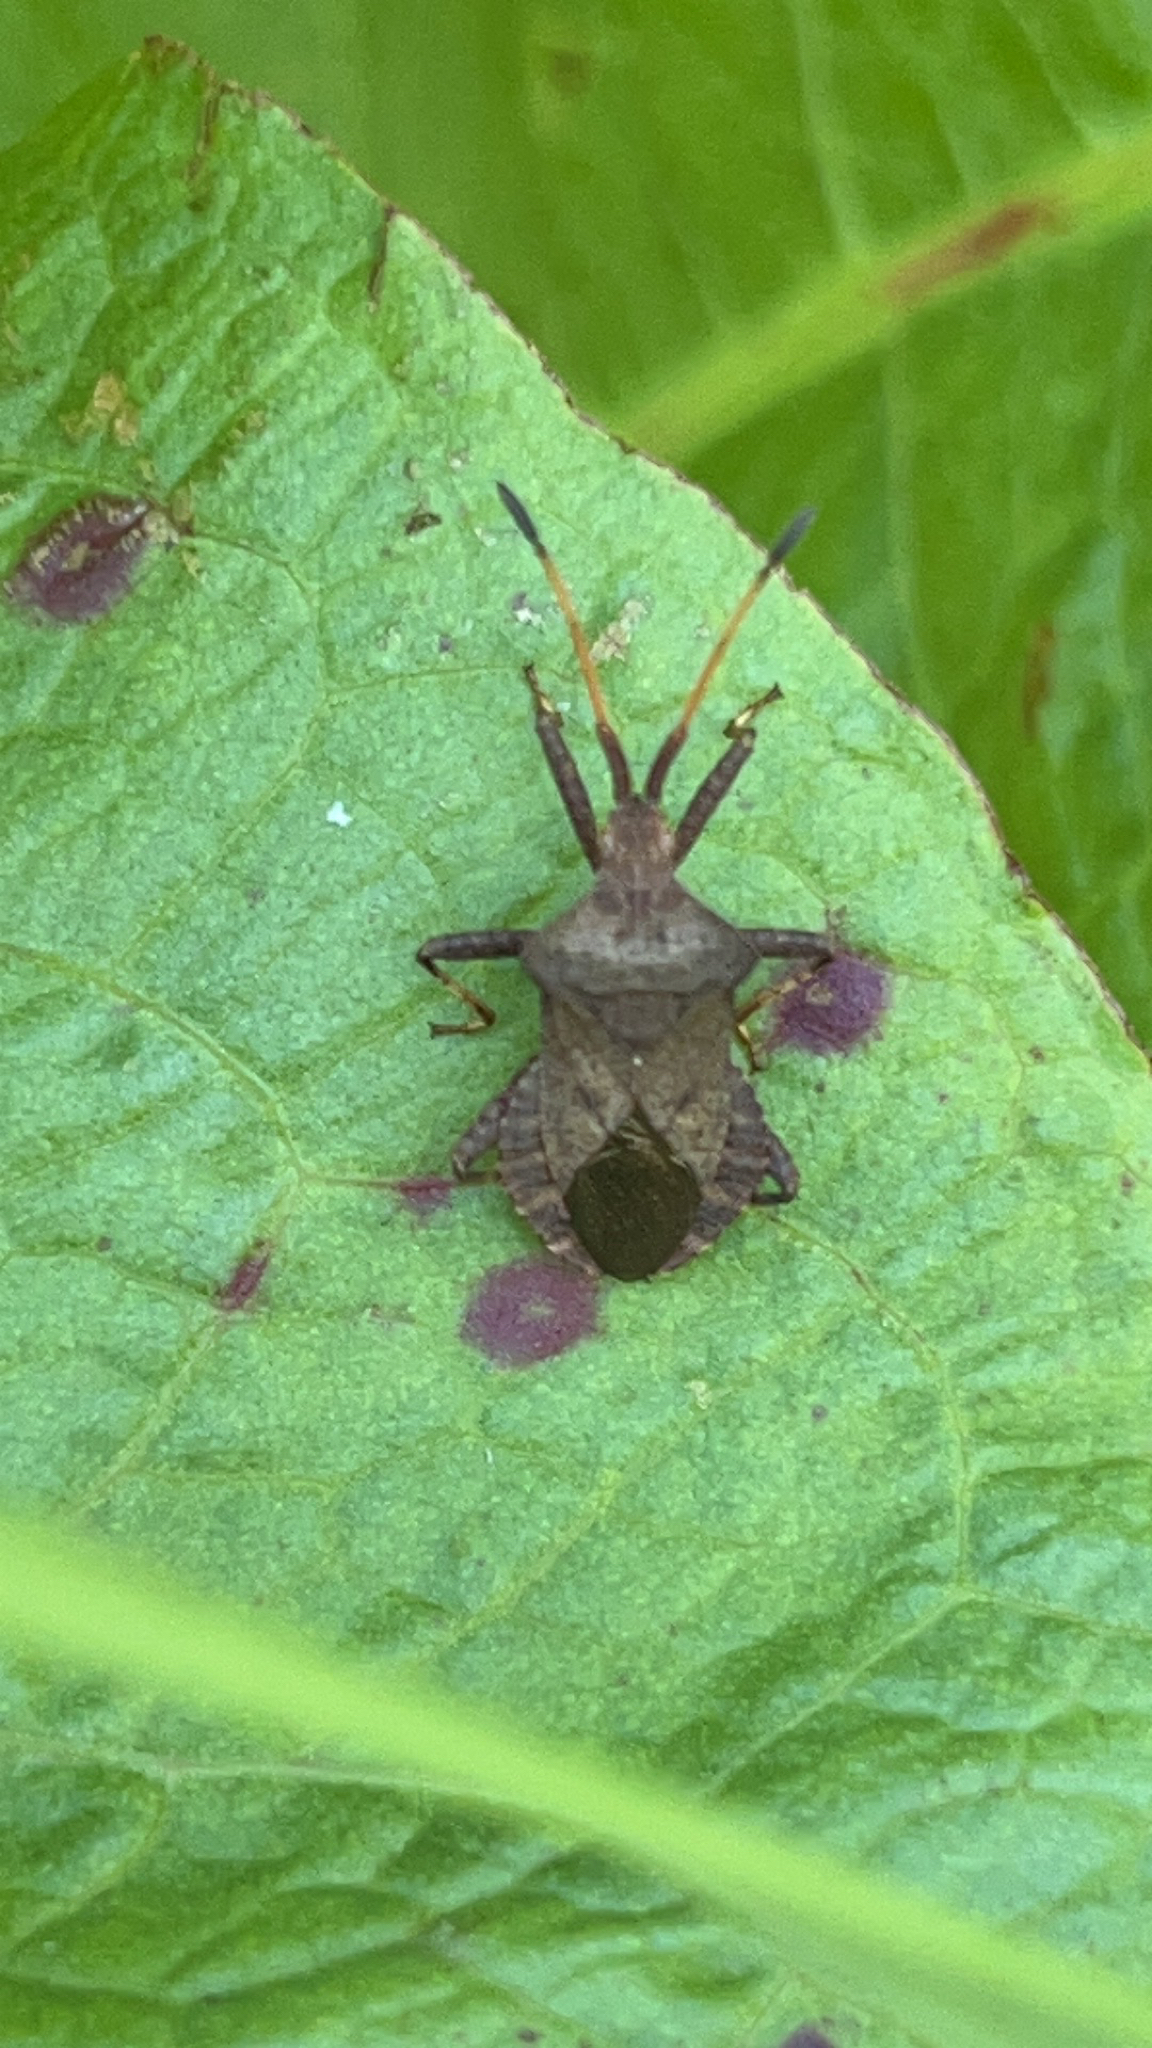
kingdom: Animalia
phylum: Arthropoda
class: Insecta
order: Hemiptera
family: Coreidae
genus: Coreus
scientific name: Coreus marginatus
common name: Dock bug
